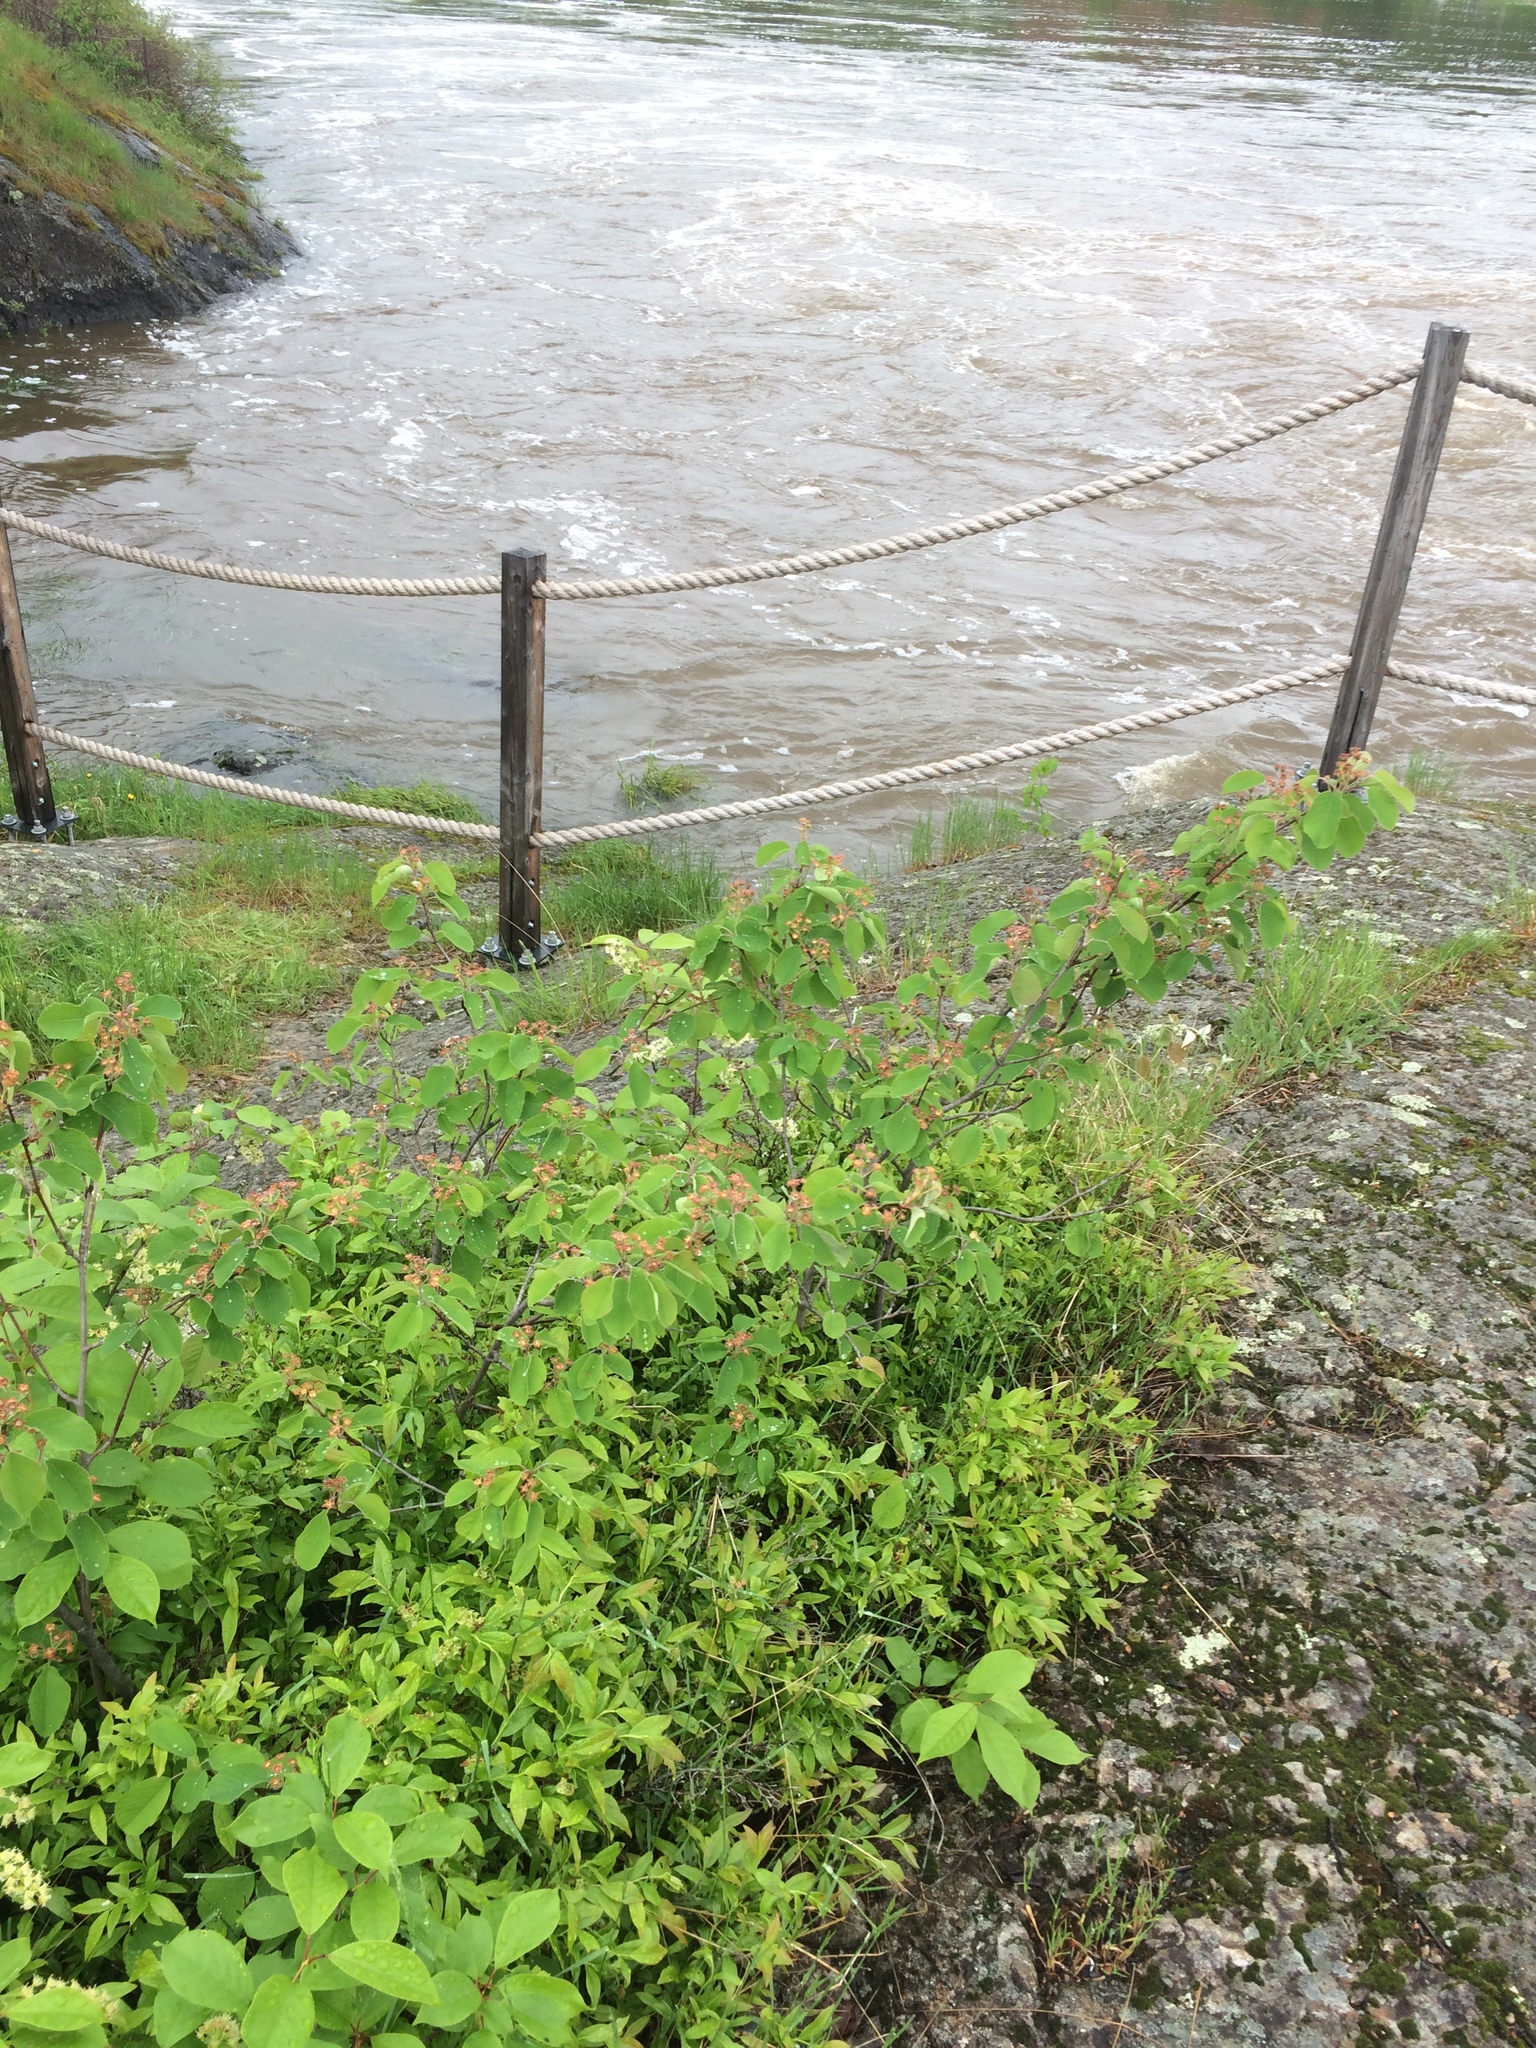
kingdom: Plantae
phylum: Tracheophyta
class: Magnoliopsida
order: Rosales
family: Rosaceae
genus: Amelanchier
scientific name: Amelanchier humilis
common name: Low juneberry
